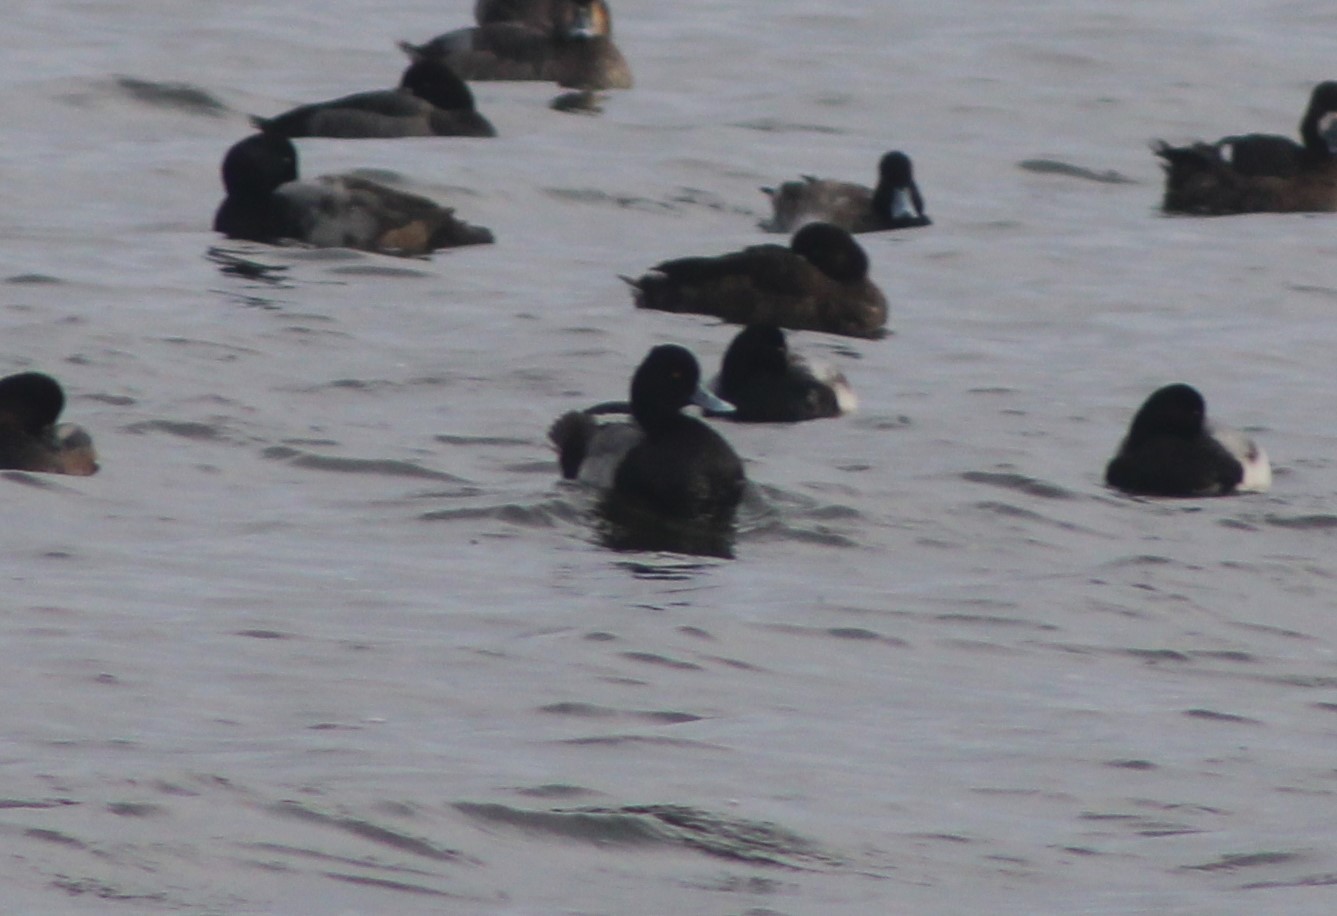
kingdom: Animalia
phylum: Chordata
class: Aves
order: Anseriformes
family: Anatidae
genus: Aythya
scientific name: Aythya affinis
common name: Lesser scaup
